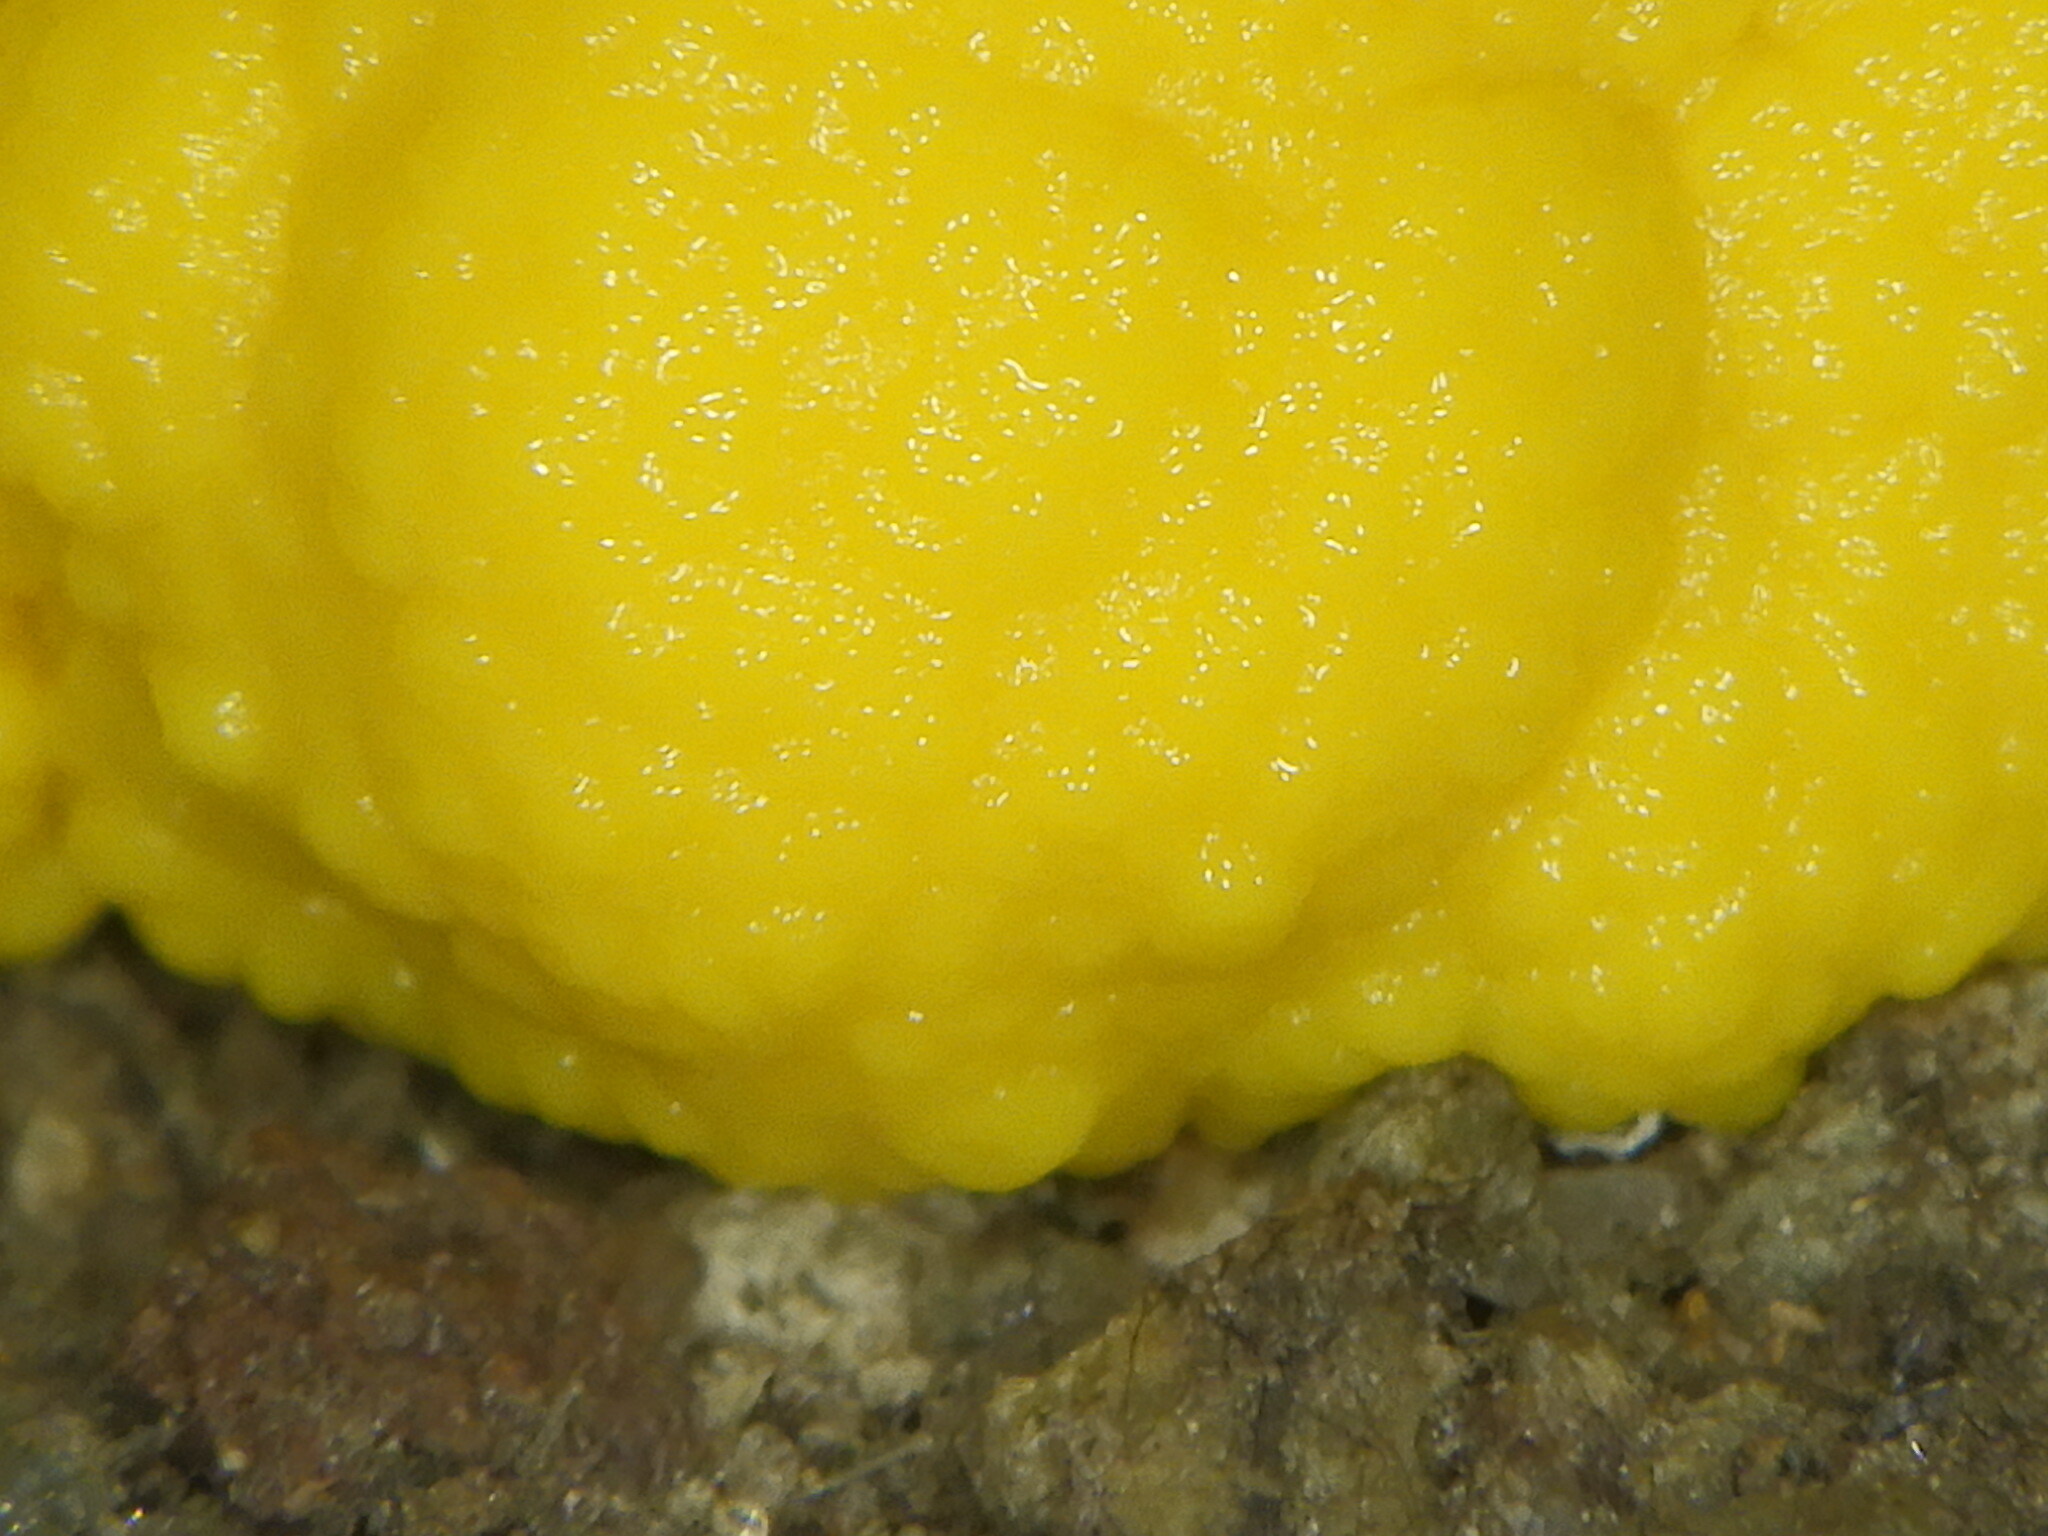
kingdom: Protozoa
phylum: Mycetozoa
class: Myxomycetes
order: Physarales
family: Physaraceae
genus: Fuligo
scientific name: Fuligo septica
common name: Dog vomit slime mold
